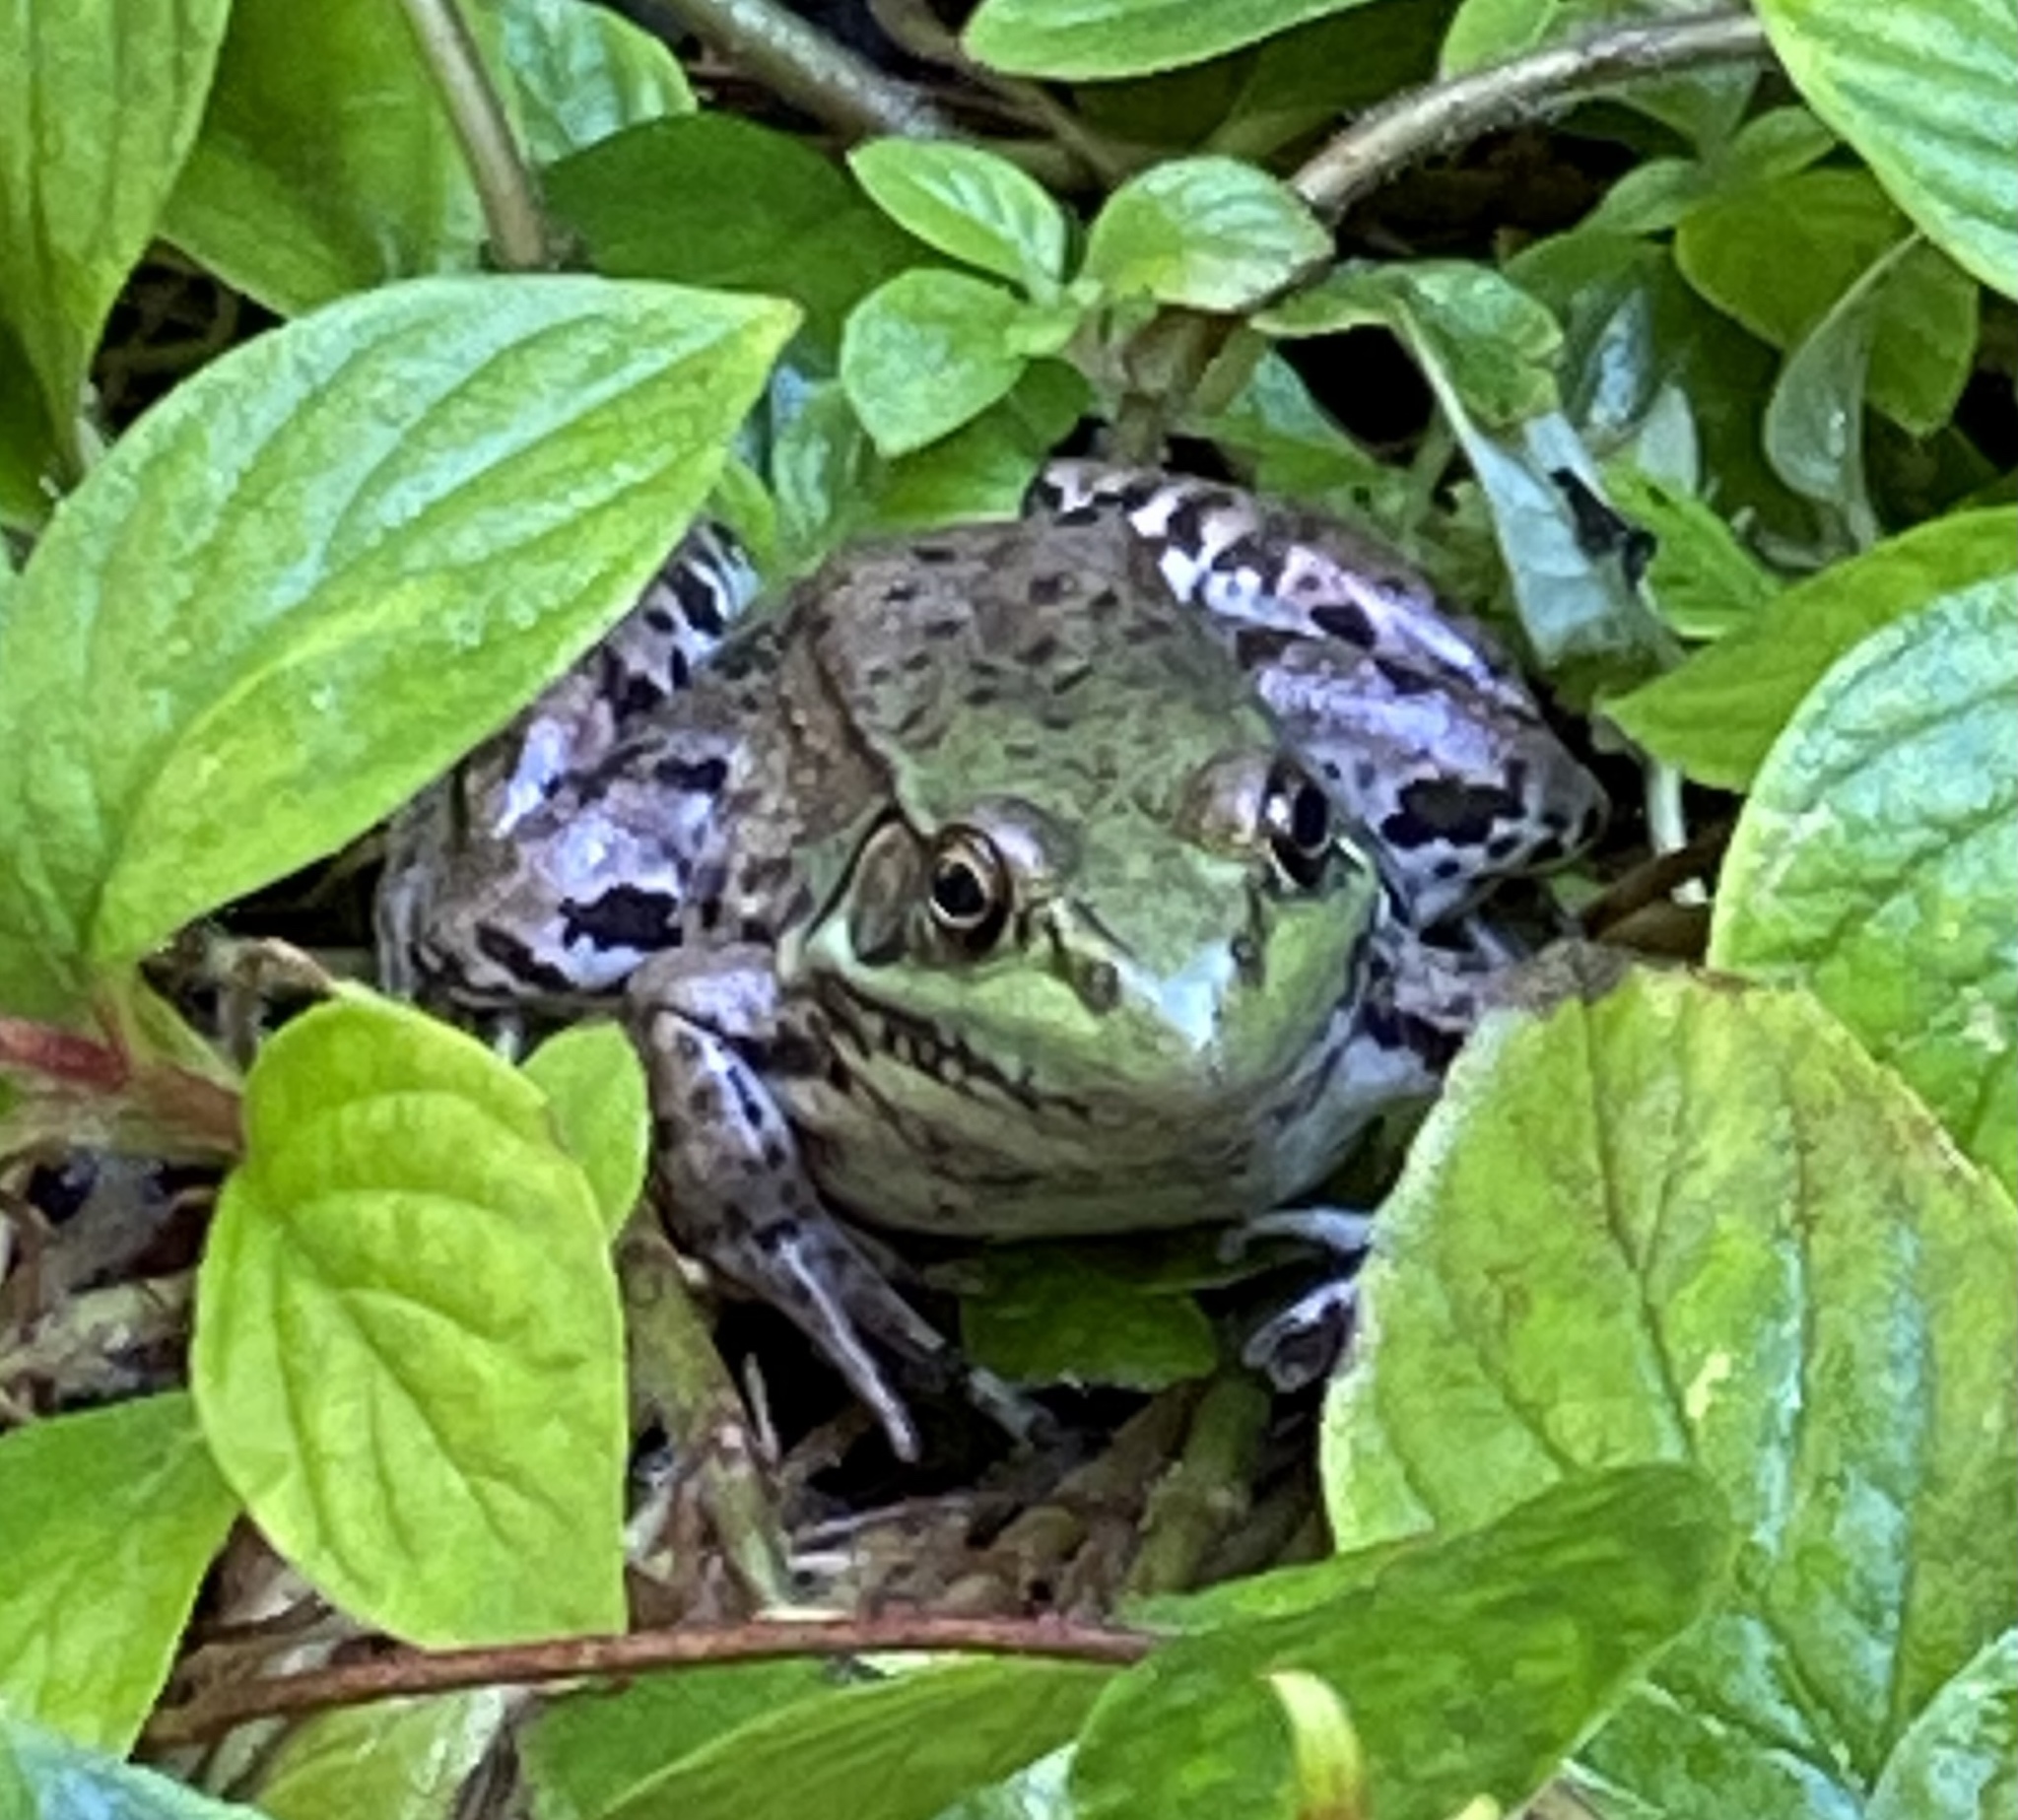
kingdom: Animalia
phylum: Chordata
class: Amphibia
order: Anura
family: Ranidae
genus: Lithobates
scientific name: Lithobates clamitans
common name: Green frog
